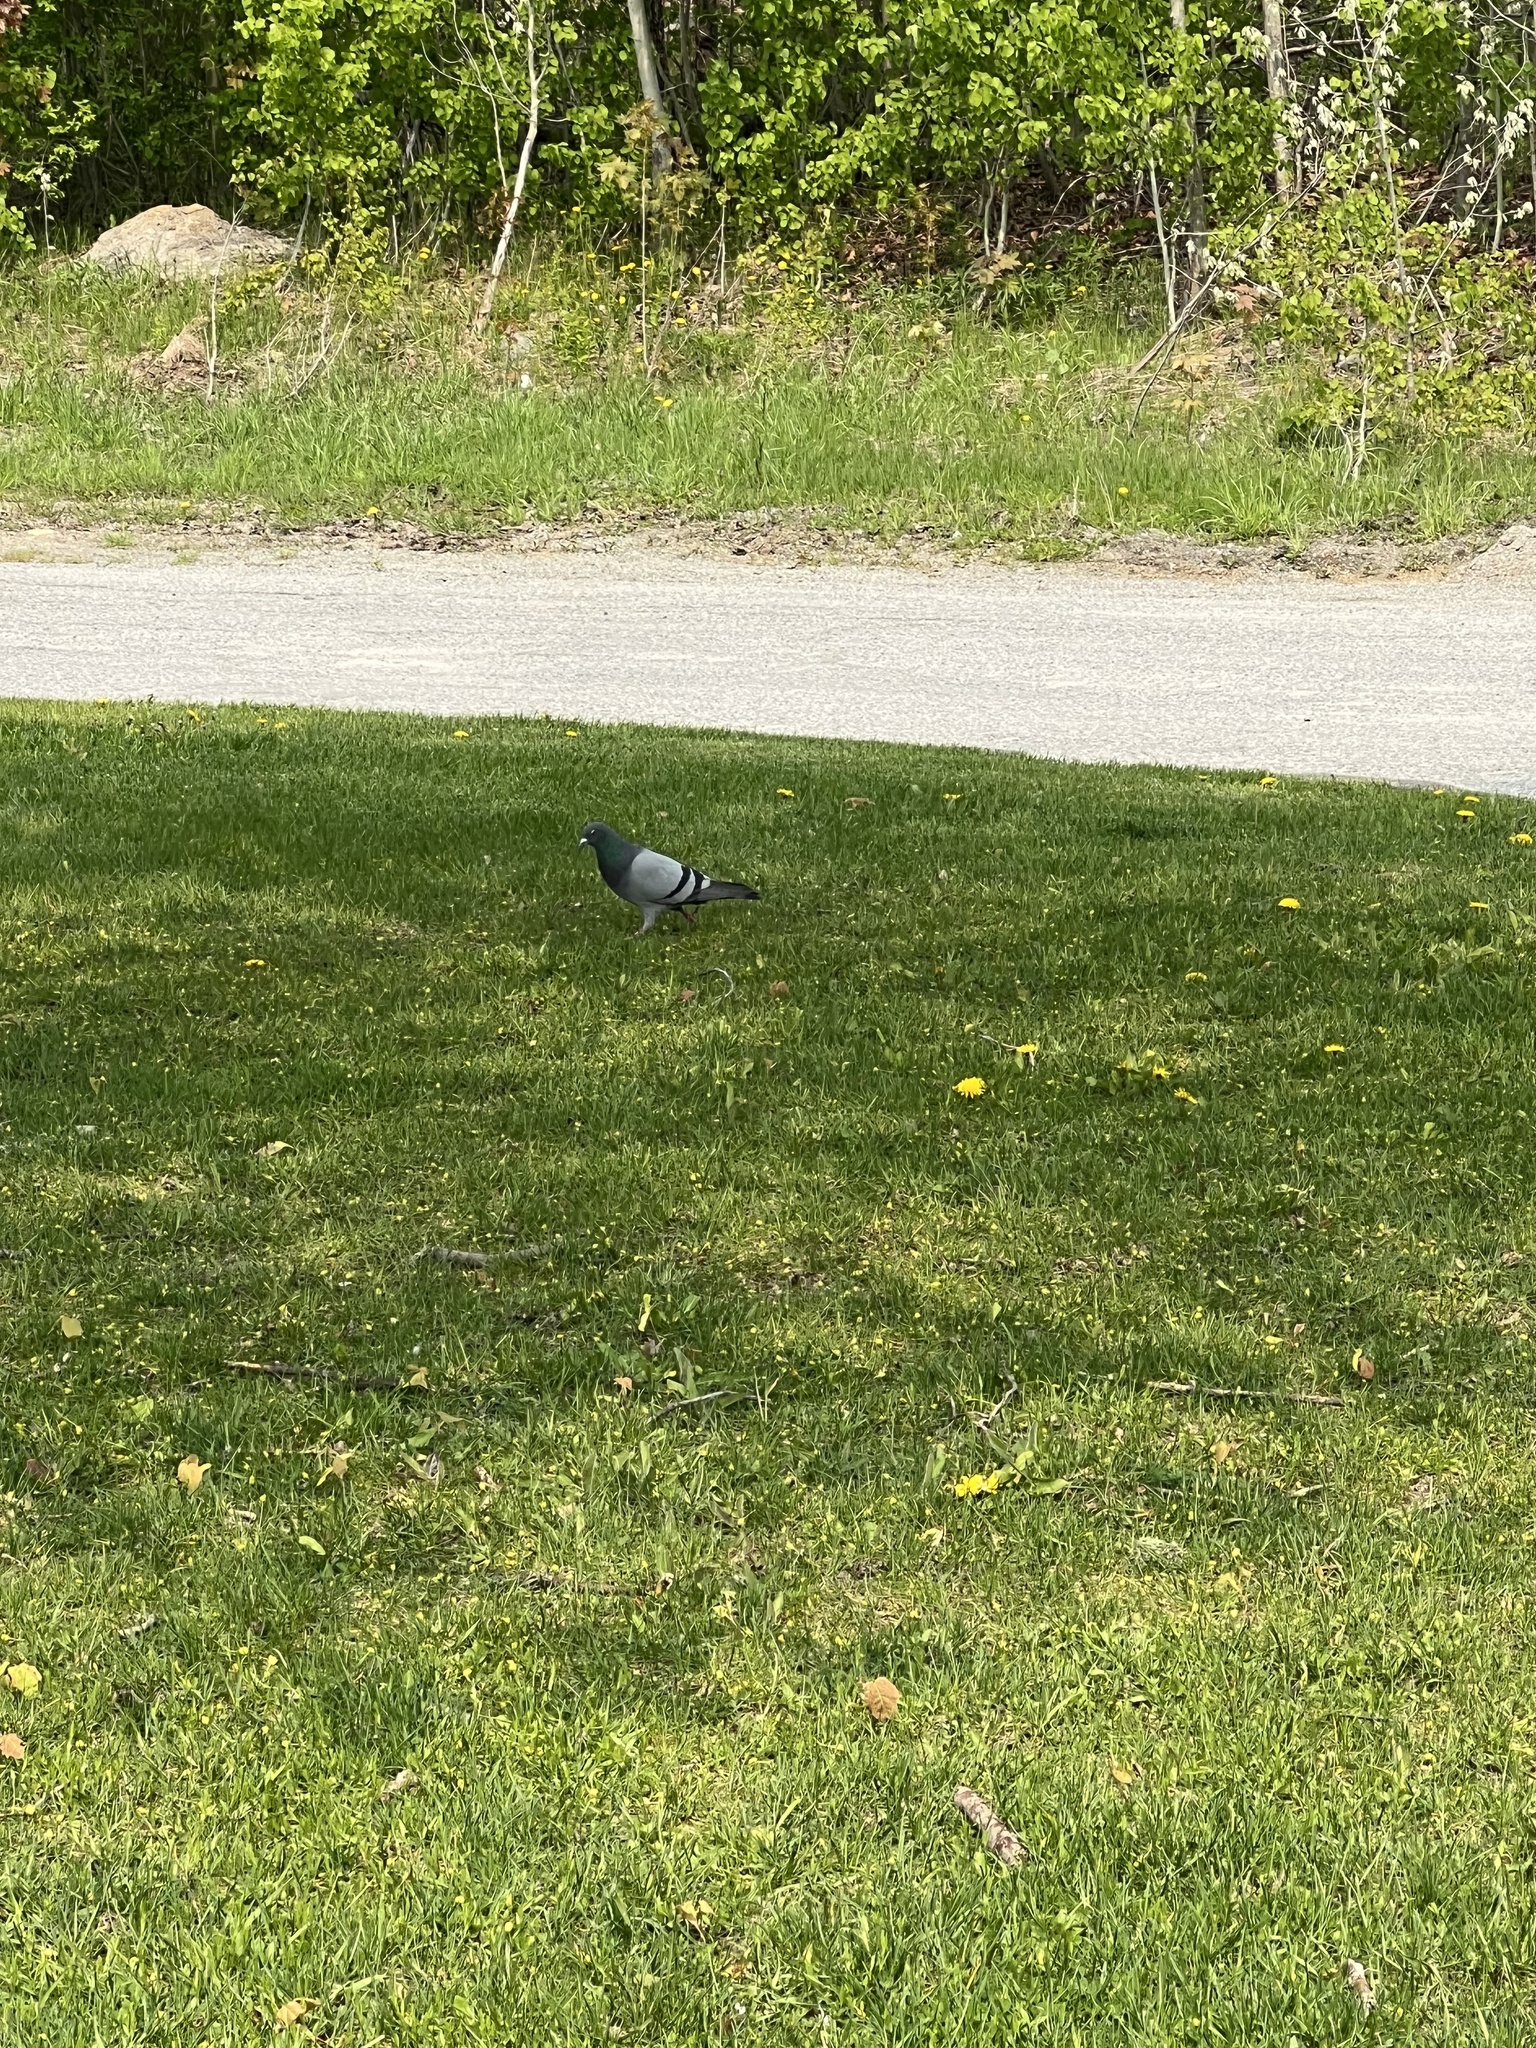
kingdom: Animalia
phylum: Chordata
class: Aves
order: Columbiformes
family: Columbidae
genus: Columba
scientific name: Columba livia
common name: Rock pigeon
